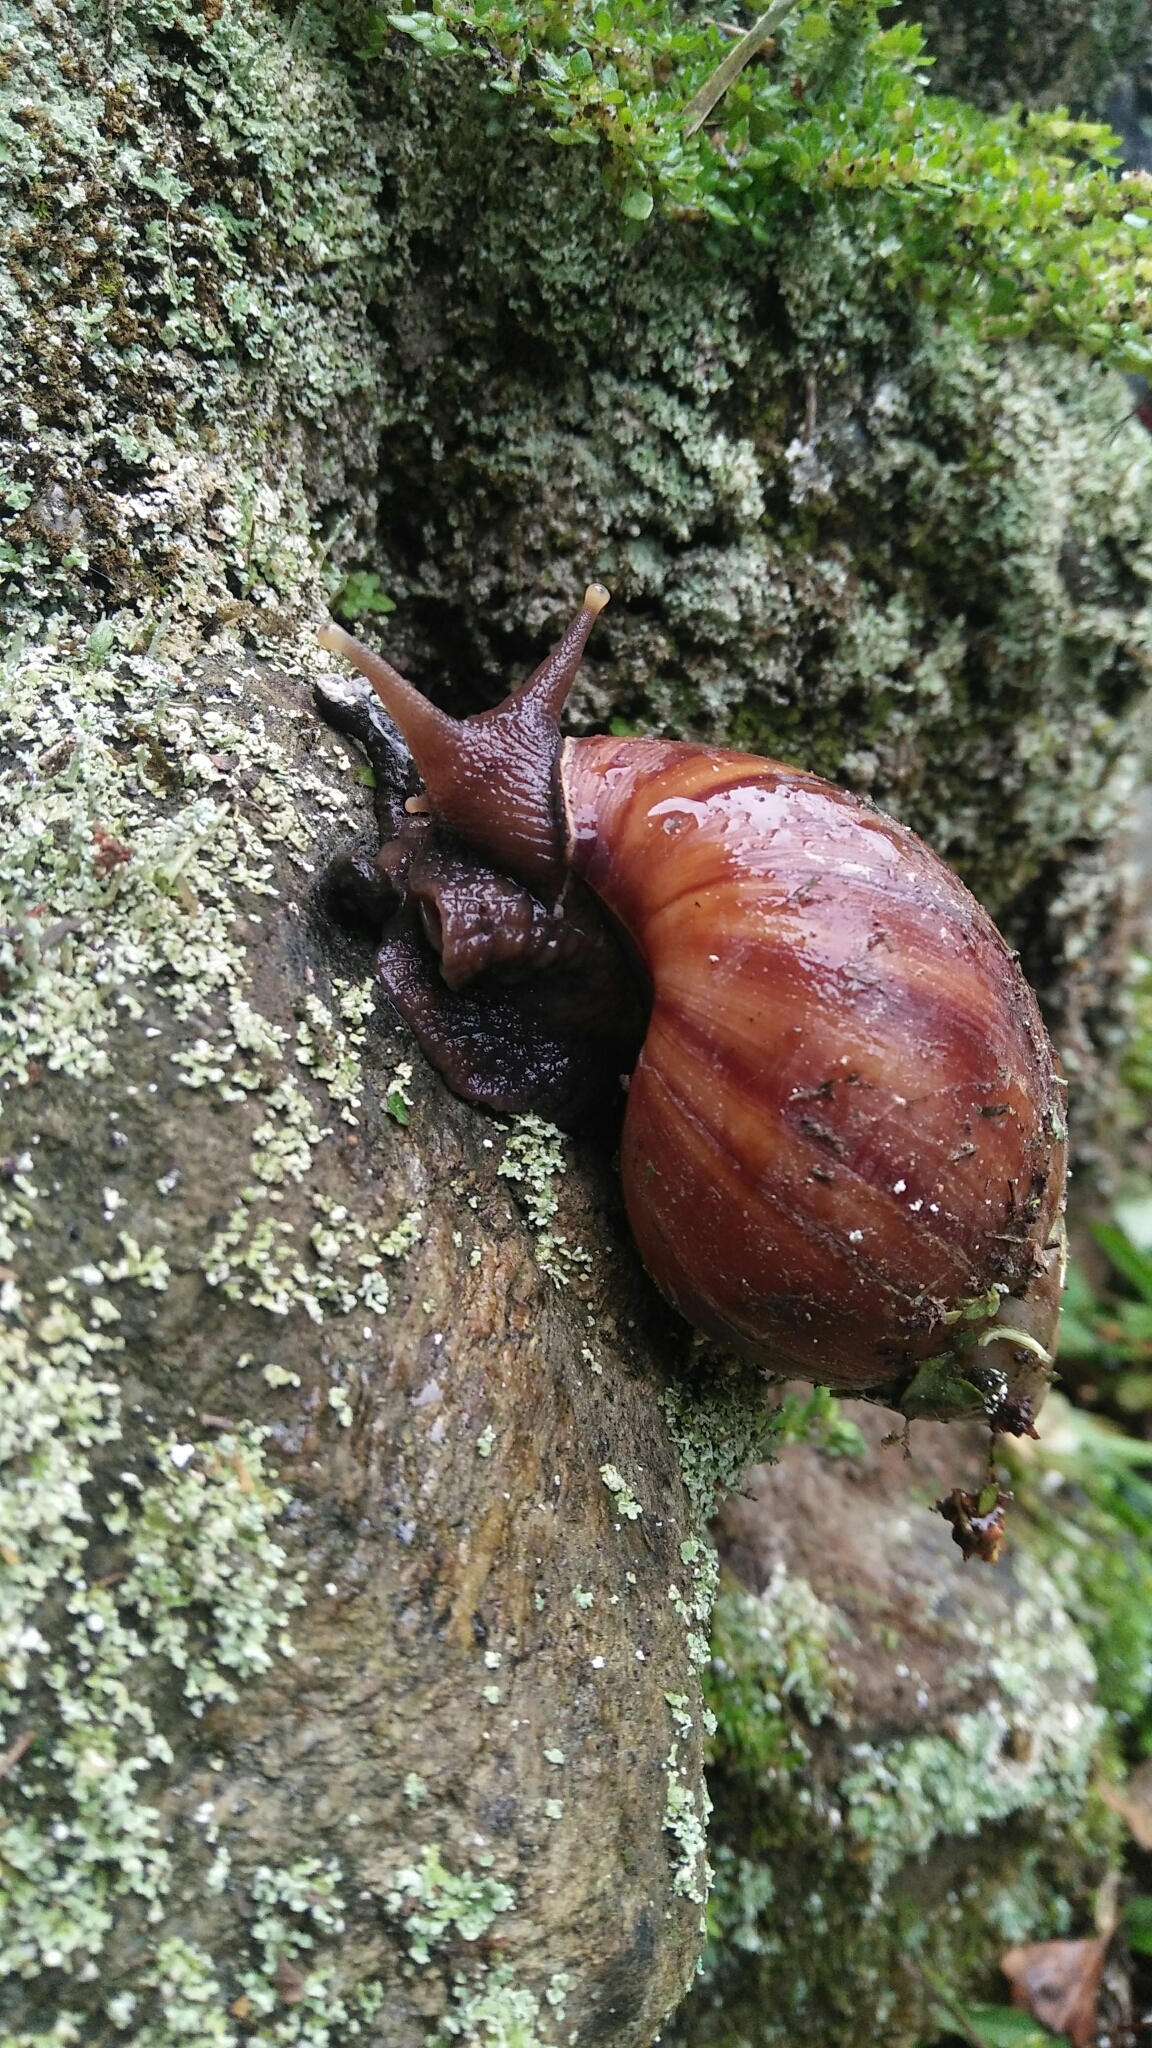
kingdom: Animalia
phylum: Mollusca
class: Gastropoda
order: Stylommatophora
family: Achatinidae
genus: Lissachatina
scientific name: Lissachatina fulica
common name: Giant african snail
